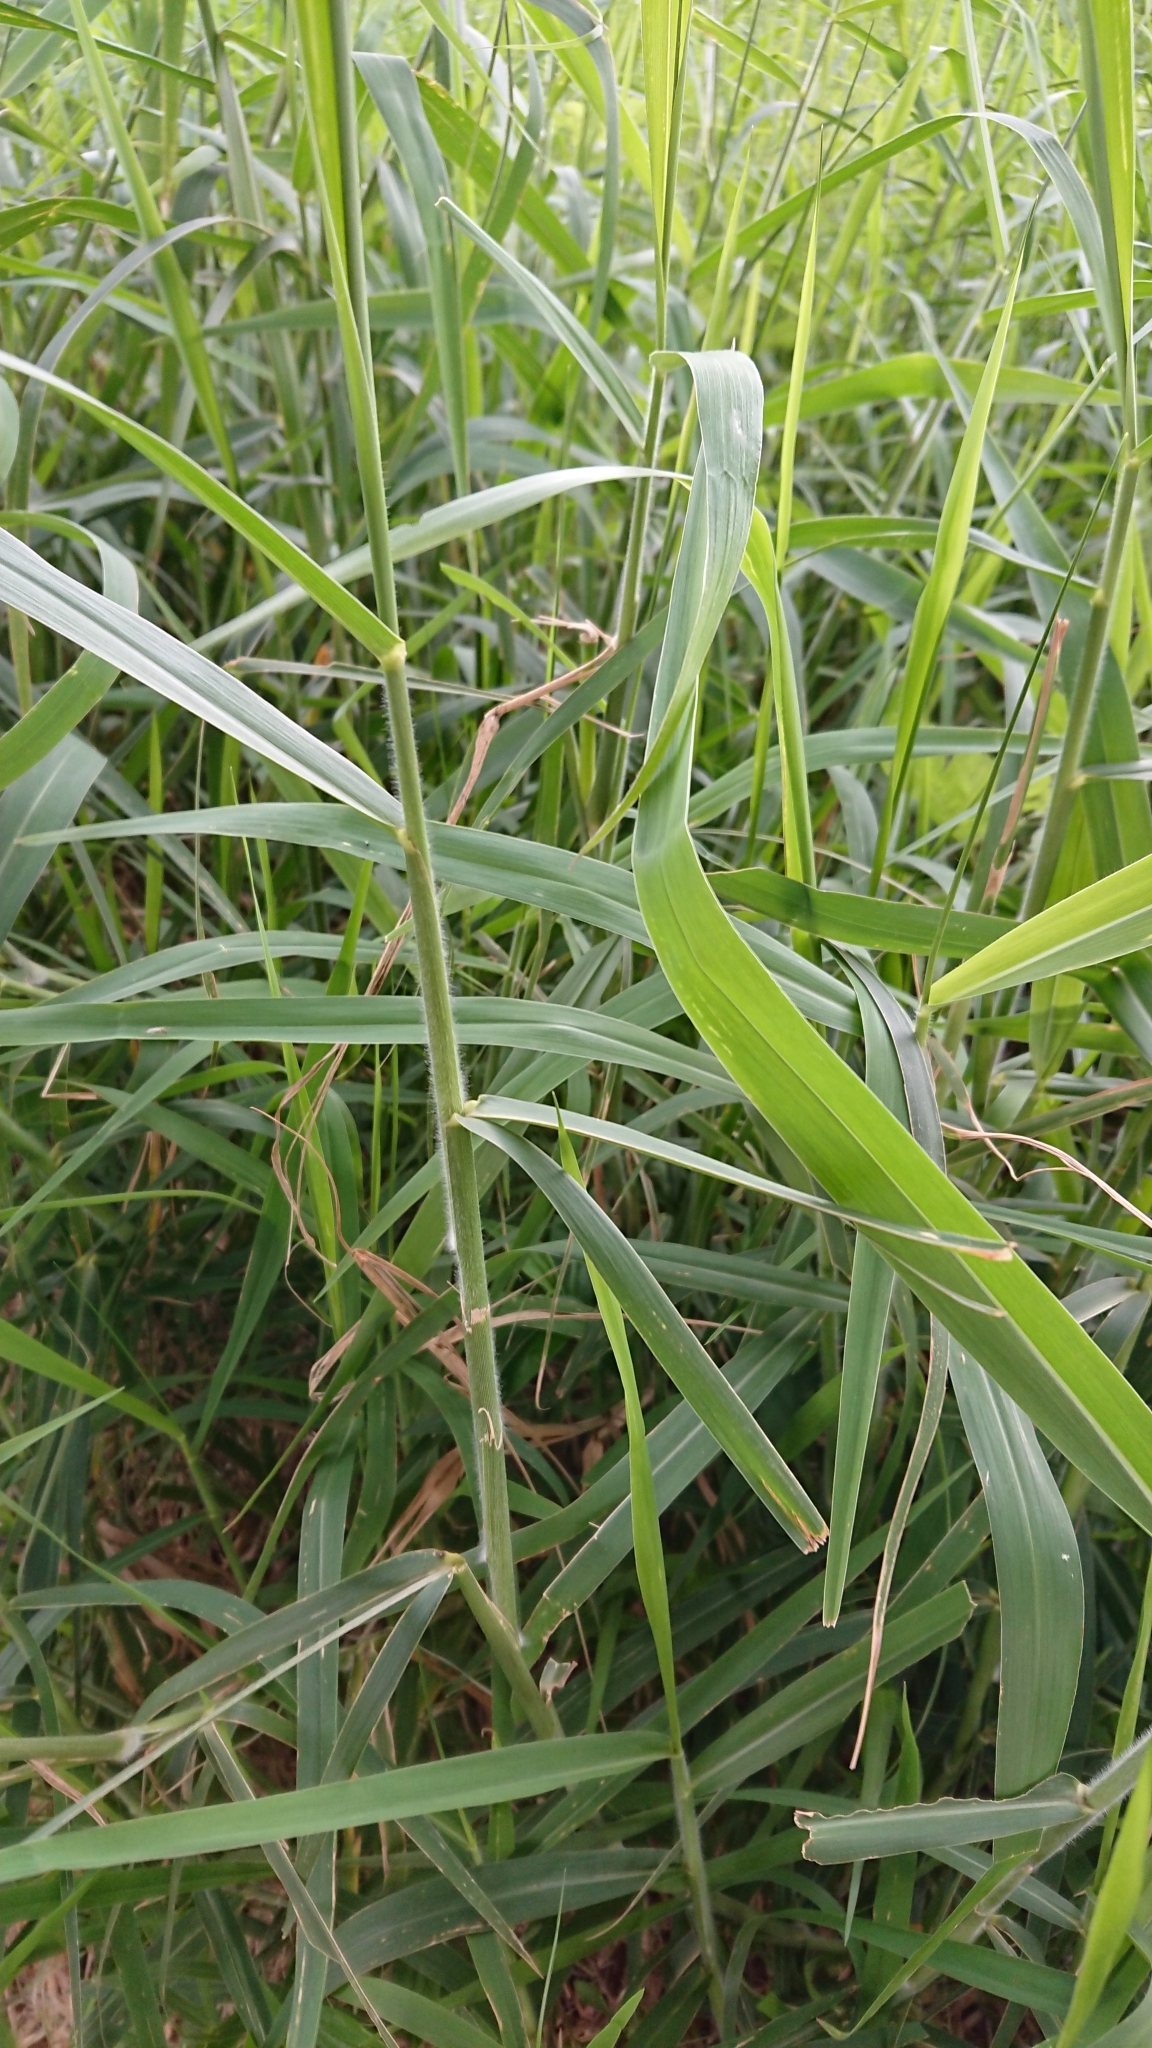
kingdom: Plantae
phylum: Tracheophyta
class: Liliopsida
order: Poales
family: Poaceae
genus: Urochloa
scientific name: Urochloa mutica
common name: Para grass
